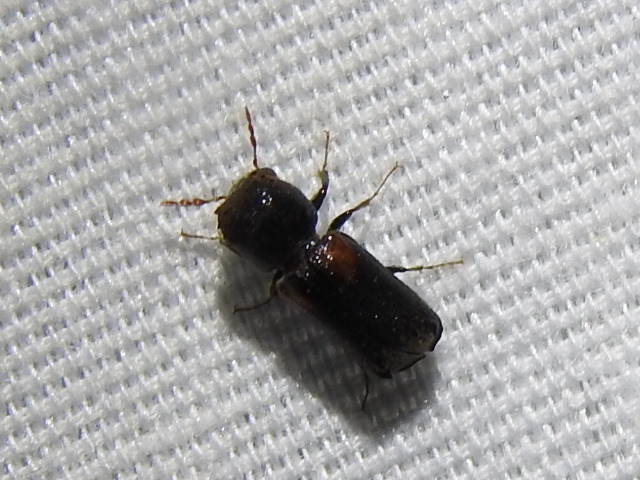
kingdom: Animalia
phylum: Arthropoda
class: Insecta
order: Coleoptera
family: Bostrichidae
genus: Xylobiops
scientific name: Xylobiops basilaris
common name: Red-shouldered bostrichid
